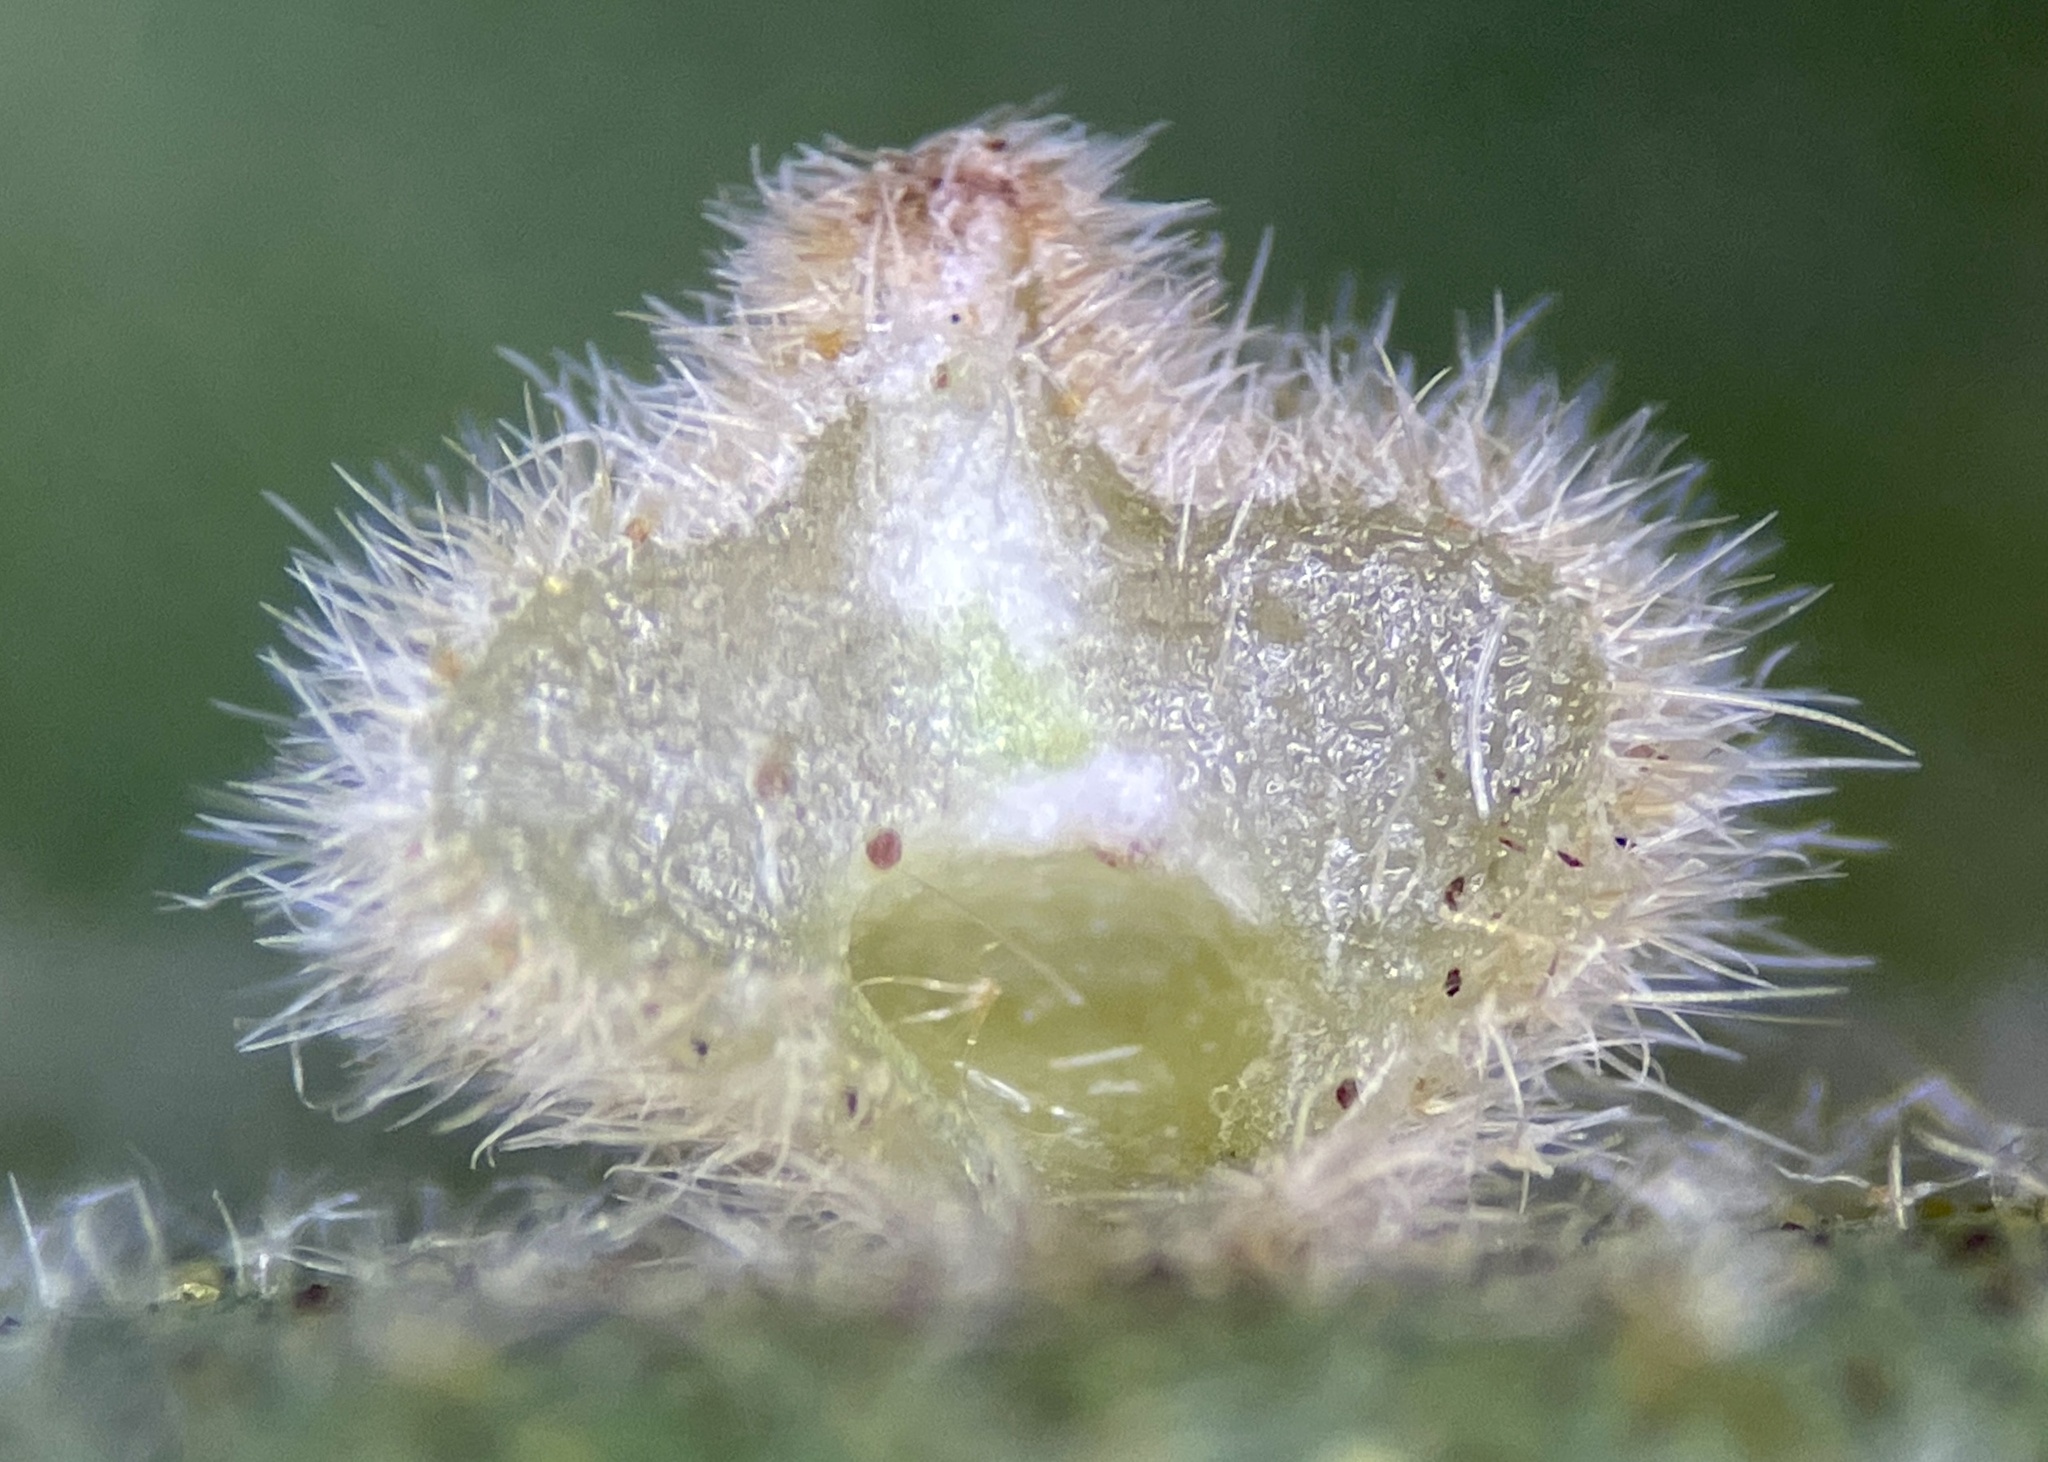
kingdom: Animalia
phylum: Arthropoda
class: Insecta
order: Diptera
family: Cecidomyiidae
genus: Caryomyia
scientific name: Caryomyia antennata
